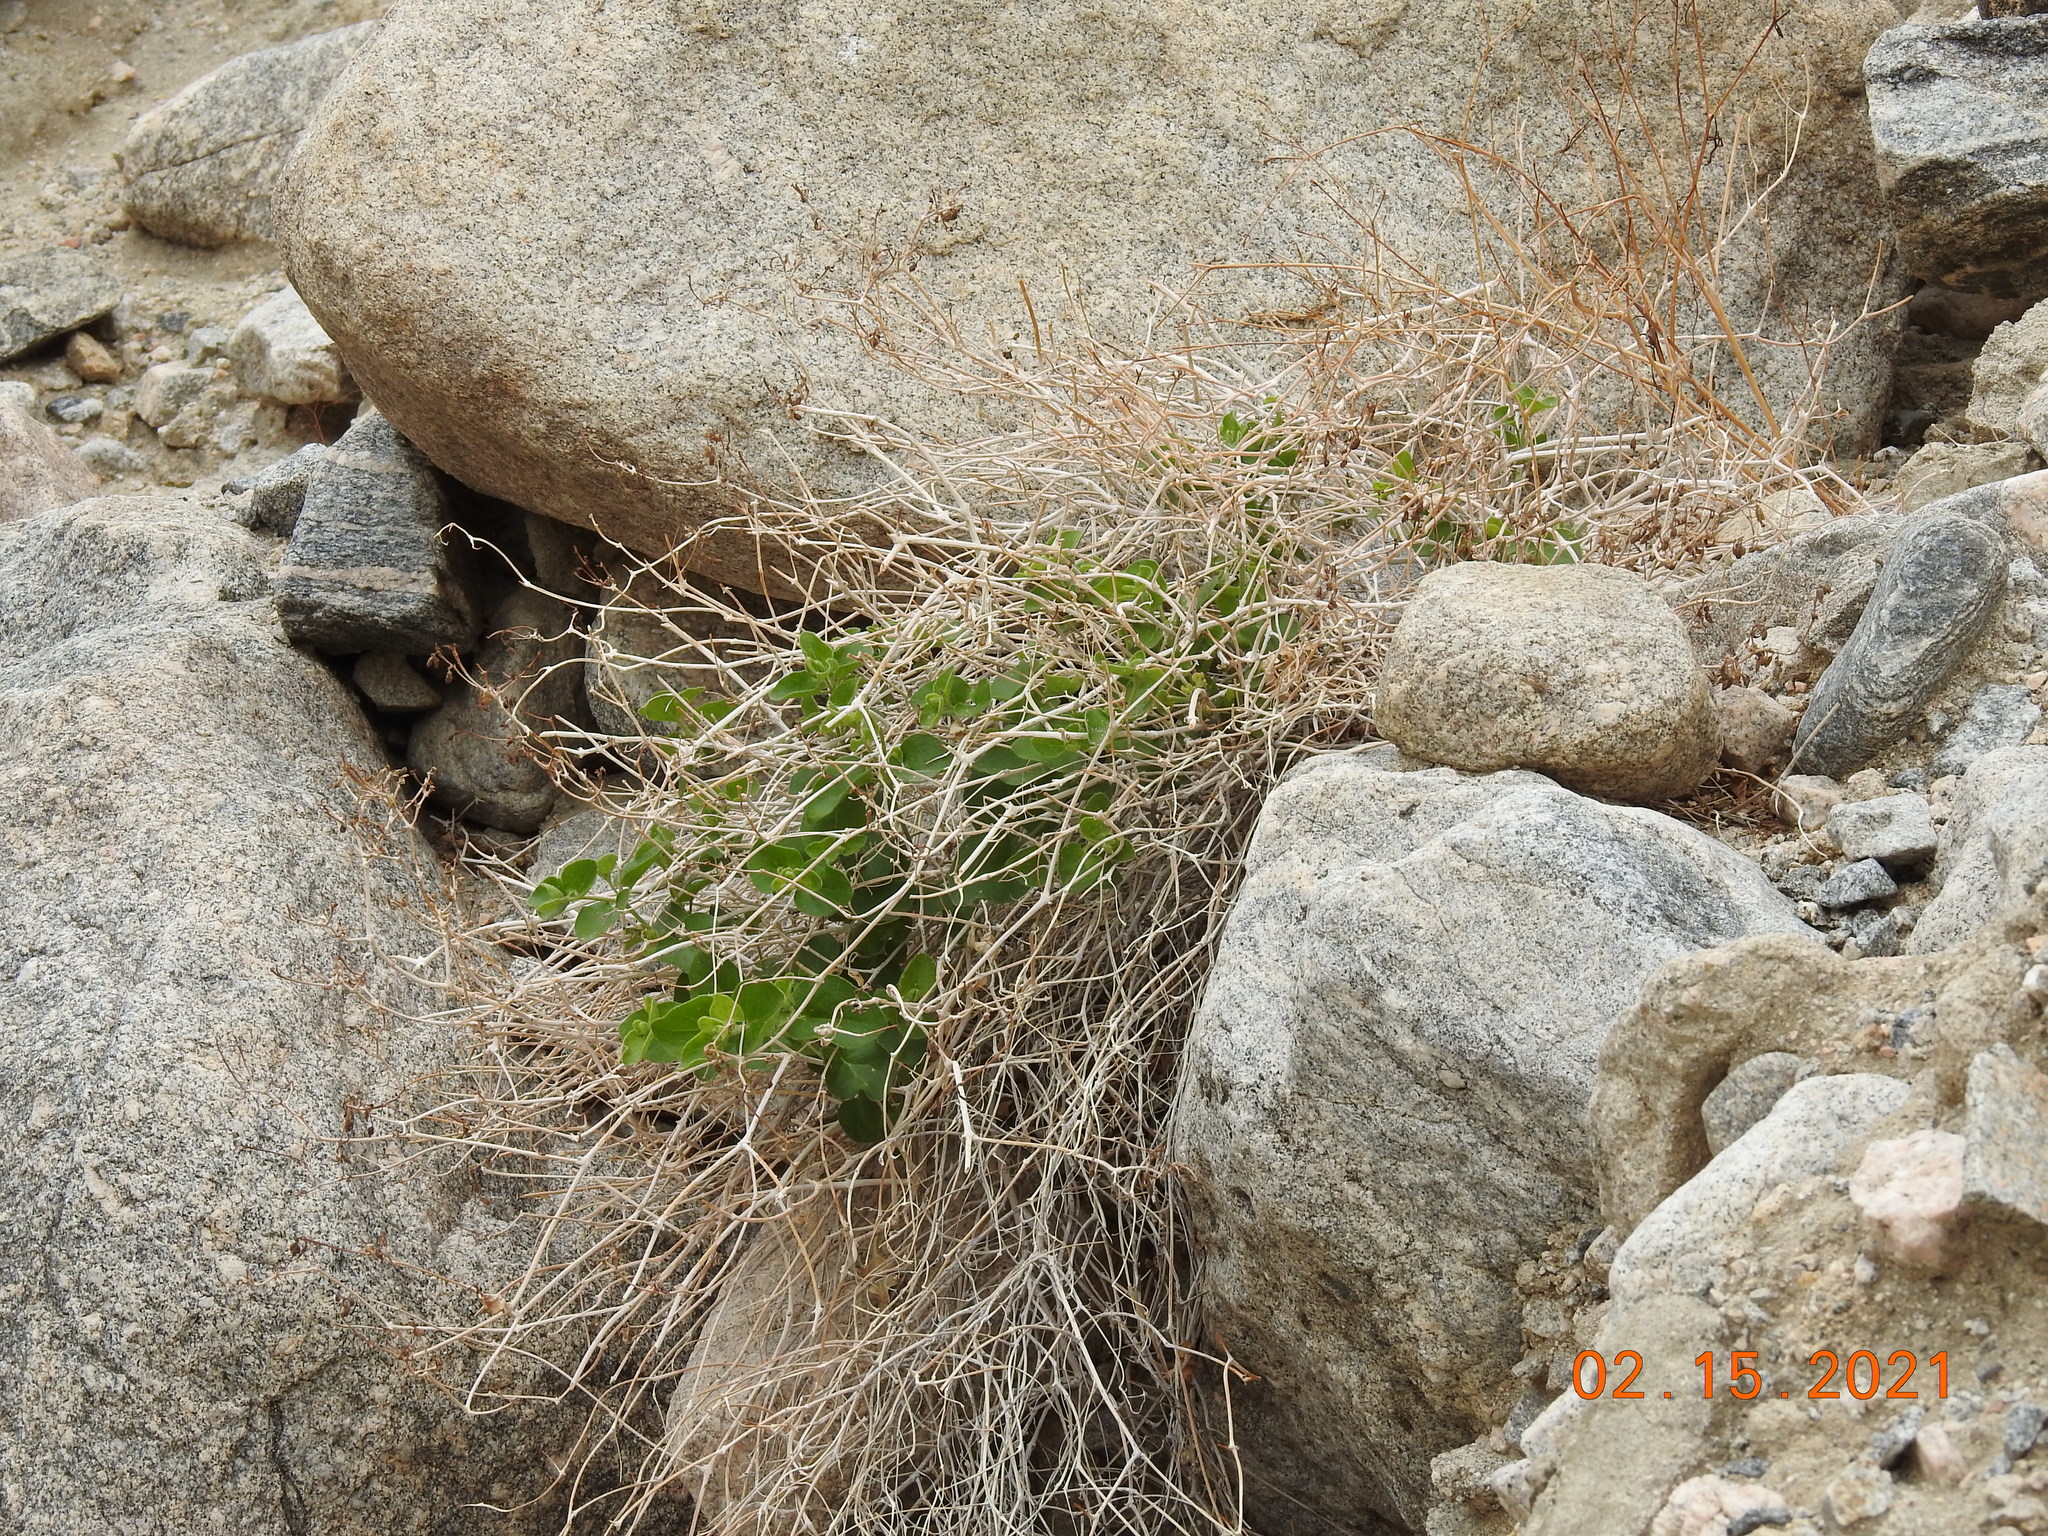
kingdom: Plantae
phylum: Tracheophyta
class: Magnoliopsida
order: Caryophyllales
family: Nyctaginaceae
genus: Mirabilis
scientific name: Mirabilis laevis
